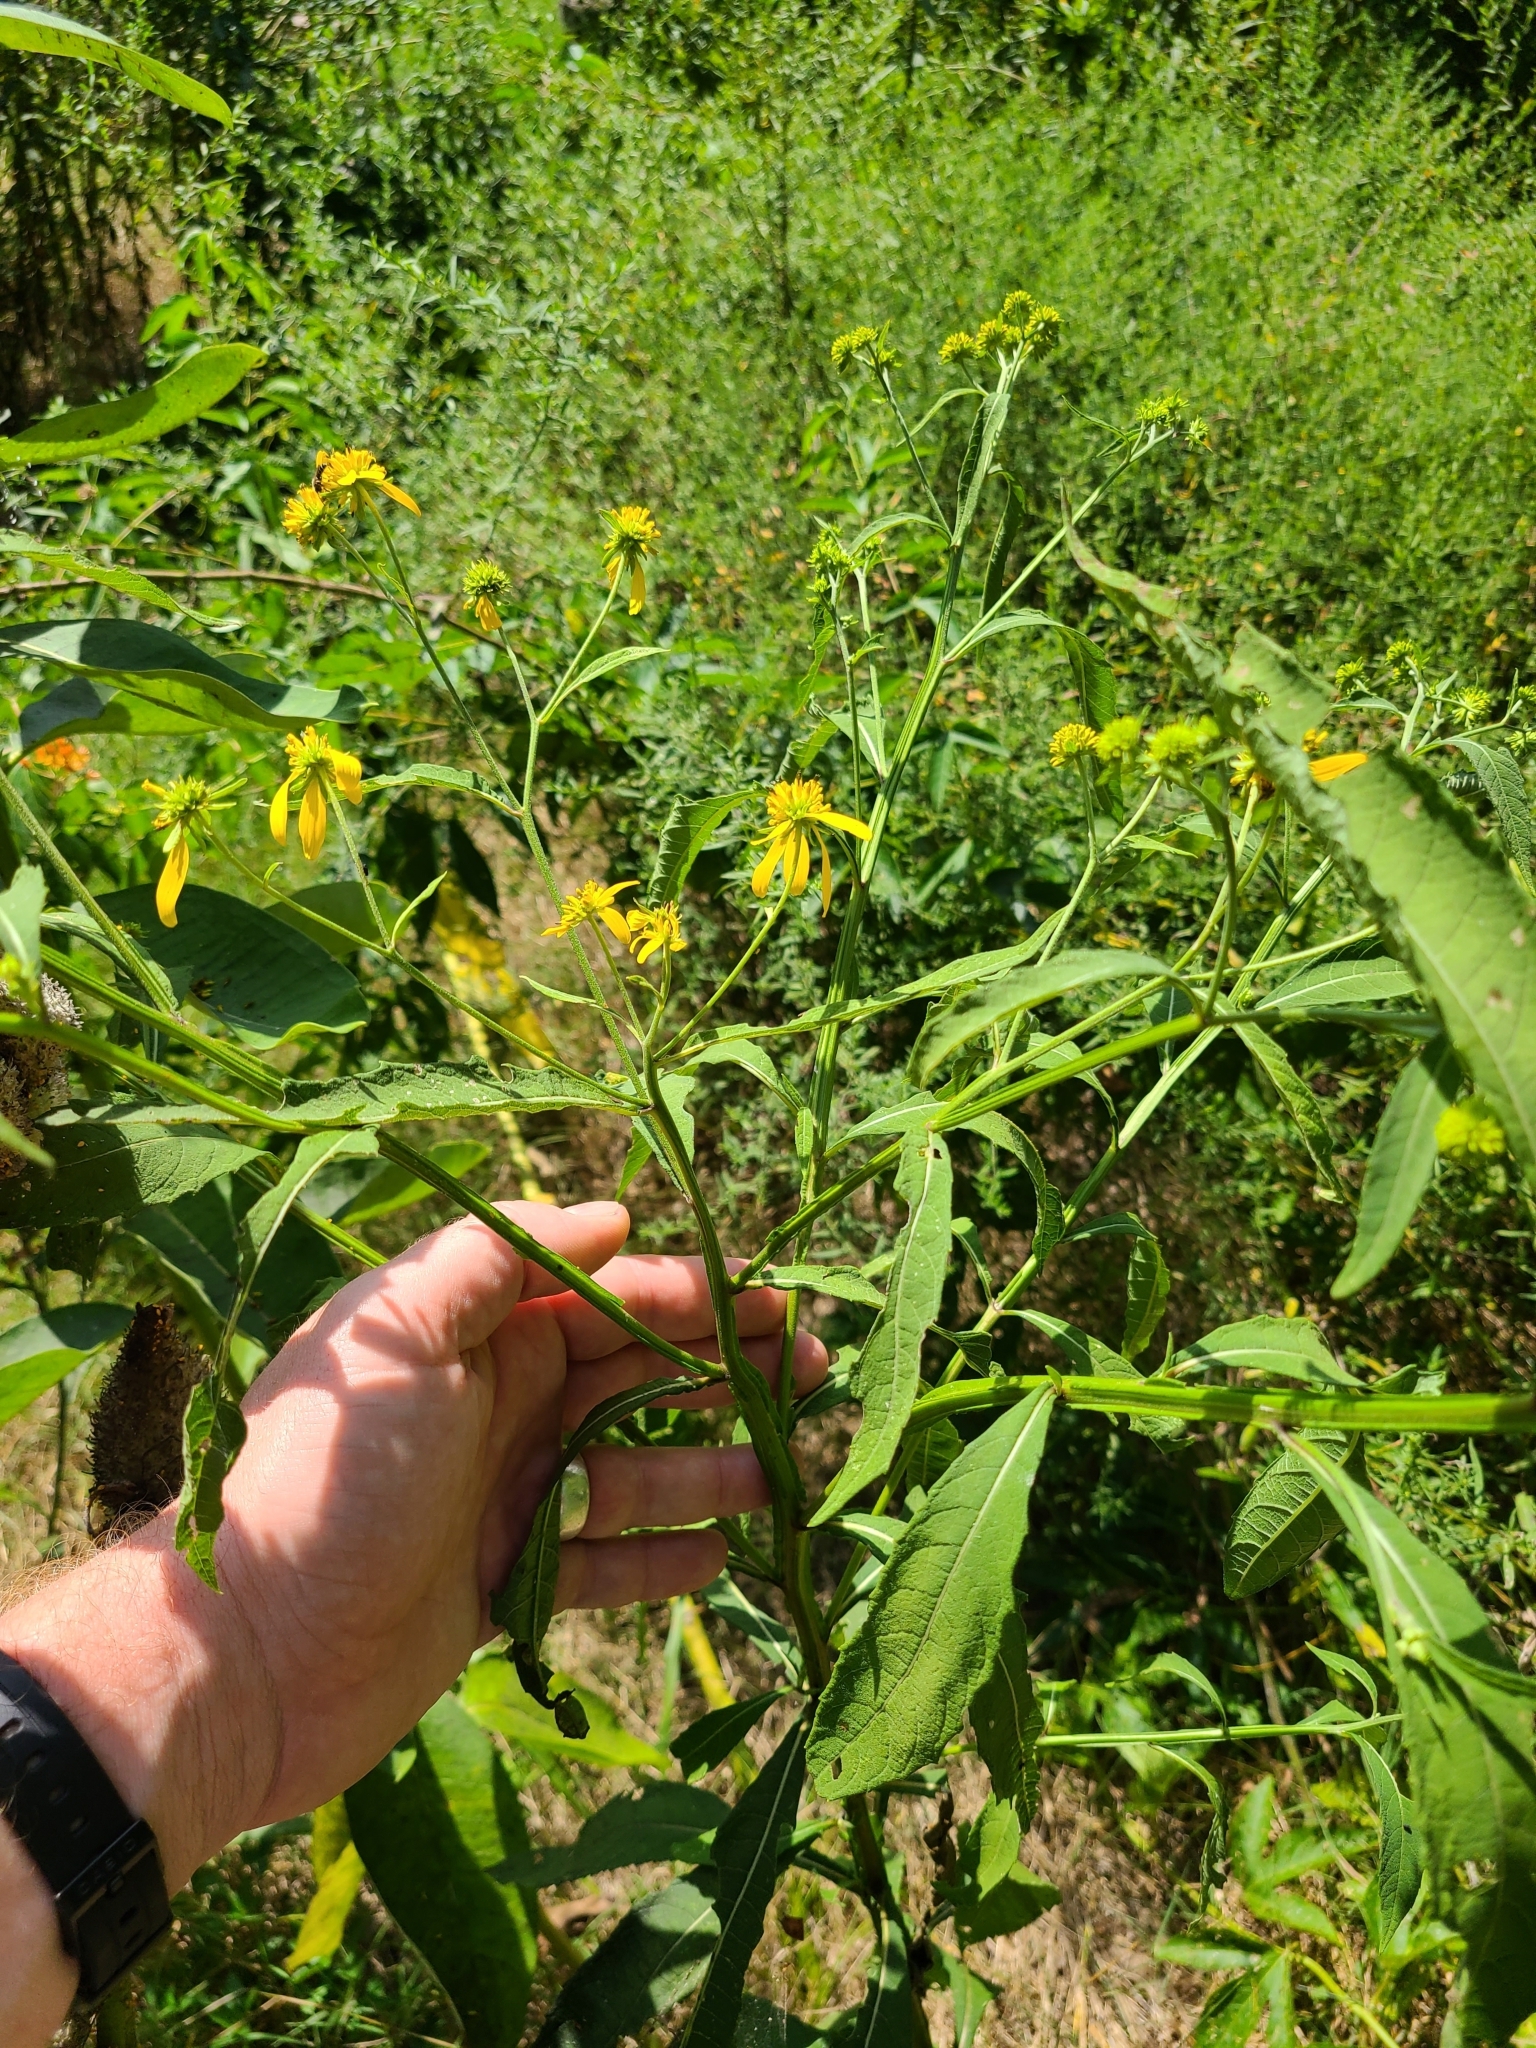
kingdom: Plantae
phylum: Tracheophyta
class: Magnoliopsida
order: Asterales
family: Asteraceae
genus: Verbesina
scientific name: Verbesina alternifolia
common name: Wingstem
